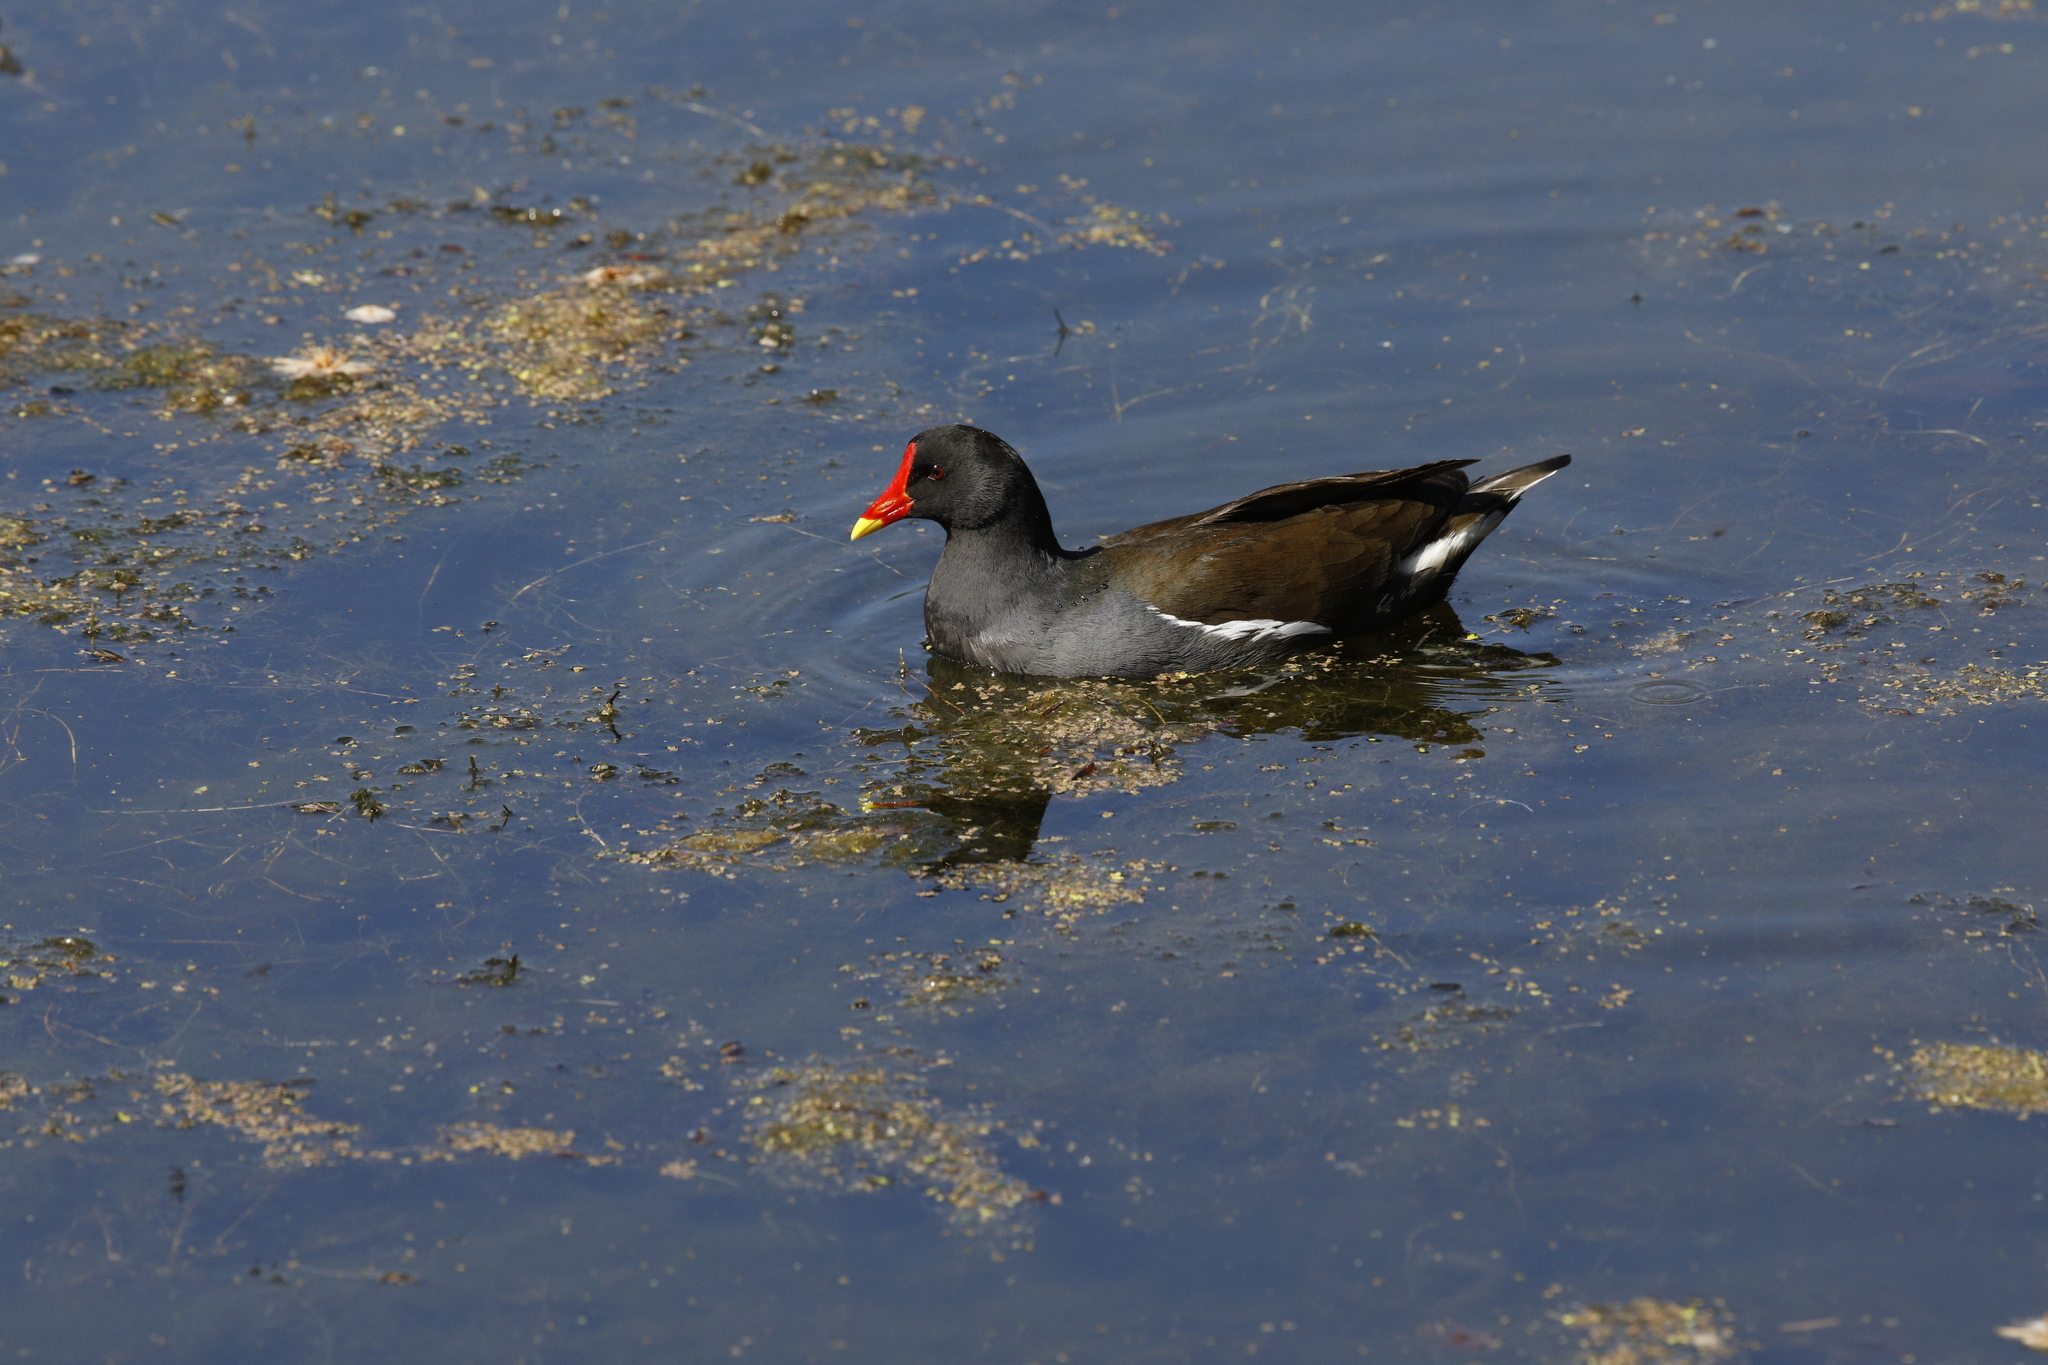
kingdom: Animalia
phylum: Chordata
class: Aves
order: Gruiformes
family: Rallidae
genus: Gallinula
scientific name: Gallinula chloropus
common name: Common moorhen
